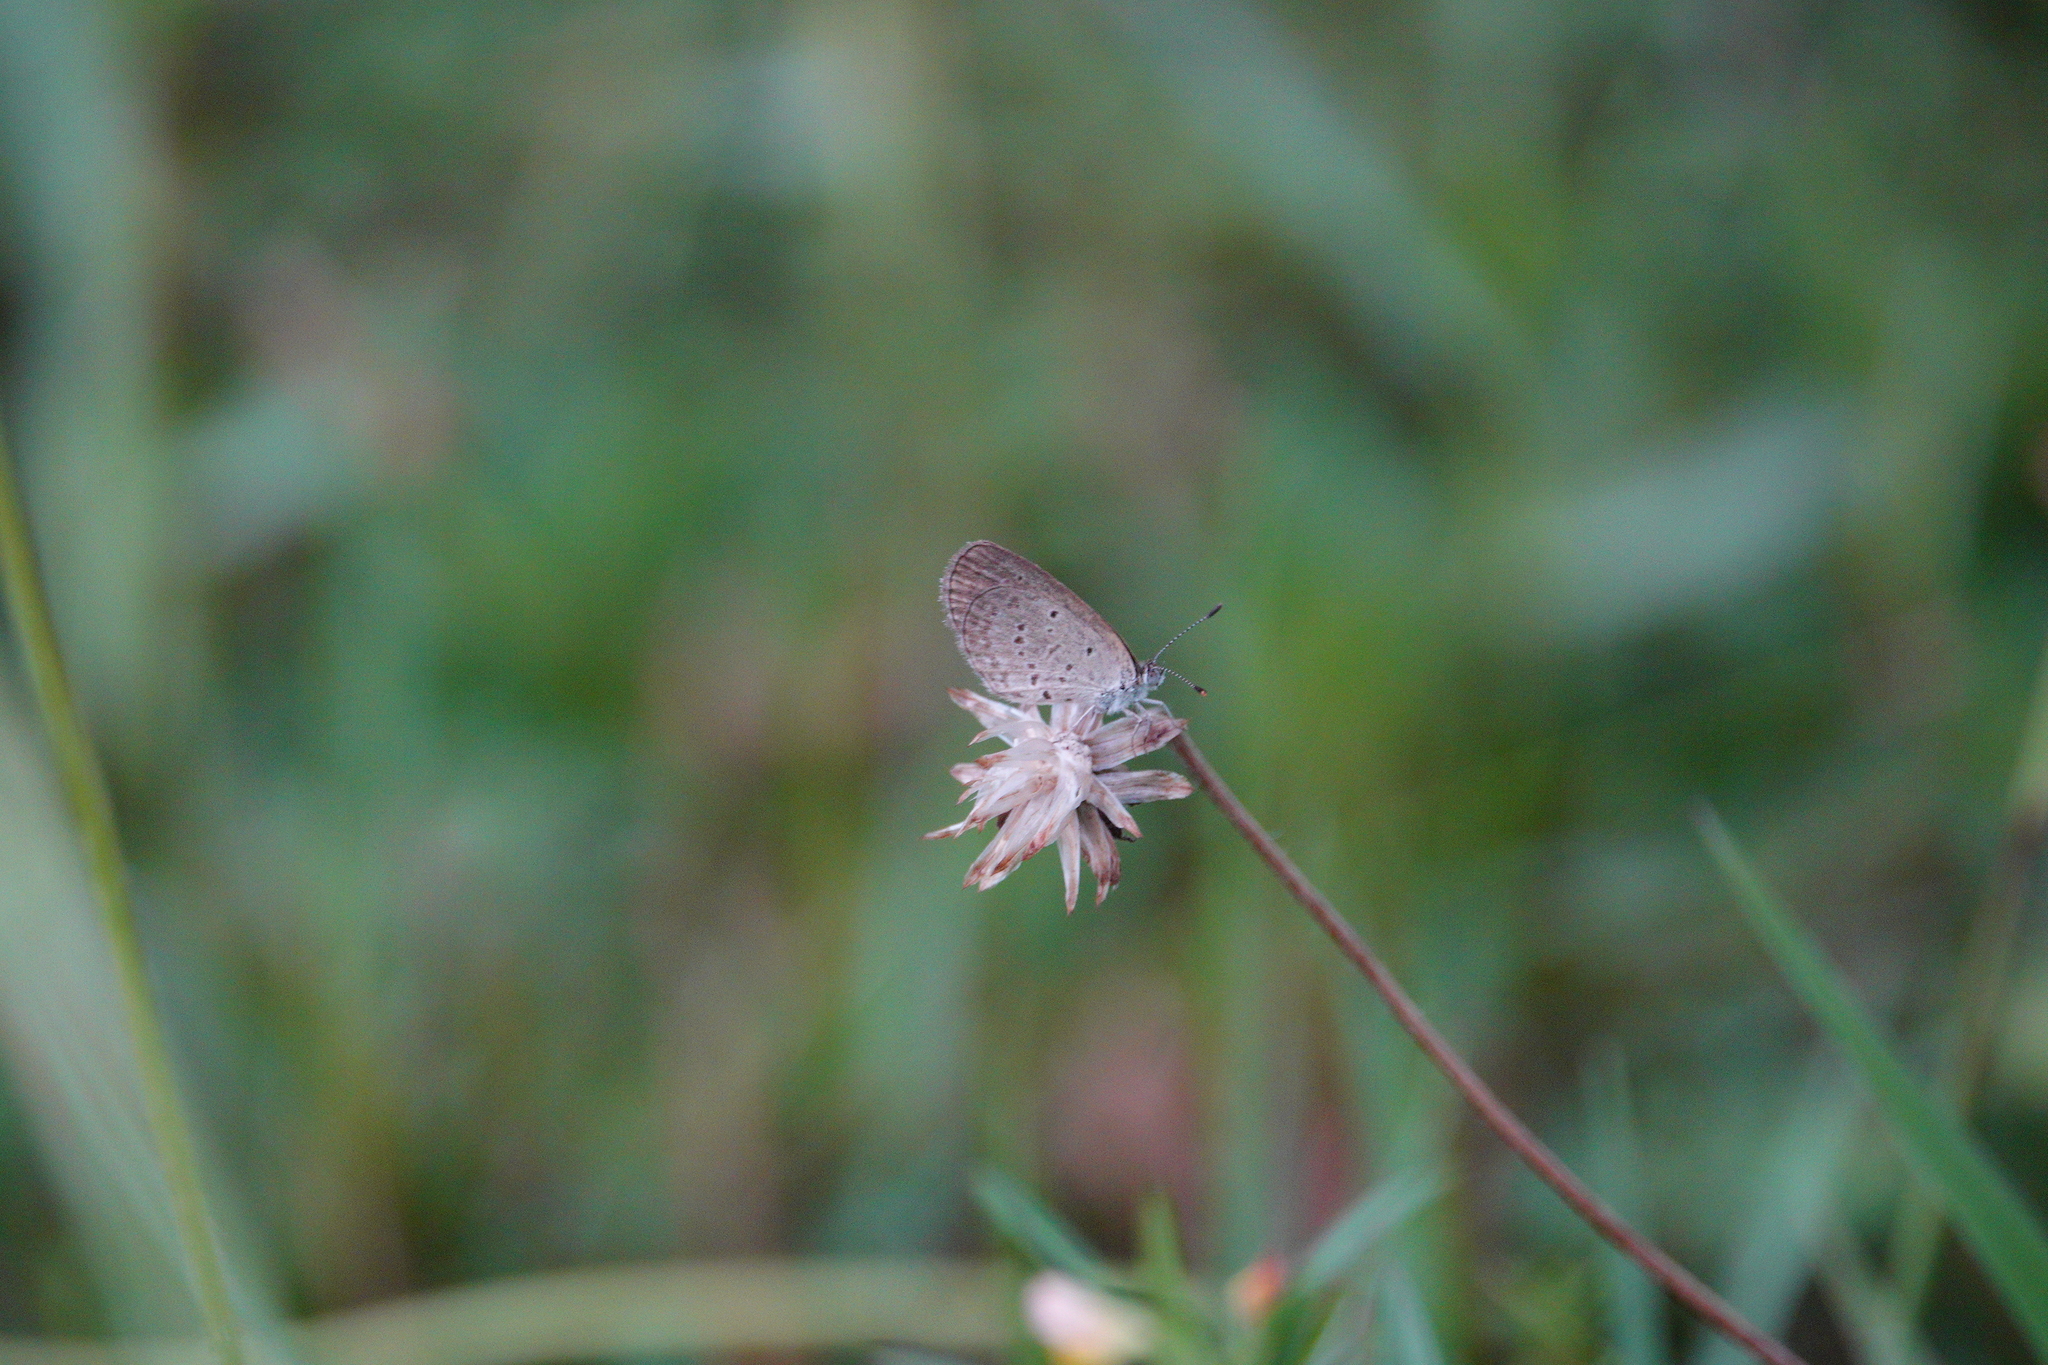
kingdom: Animalia
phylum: Arthropoda
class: Insecta
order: Lepidoptera
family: Lycaenidae
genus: Zizina
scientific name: Zizina otis
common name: Lesser grass blue
